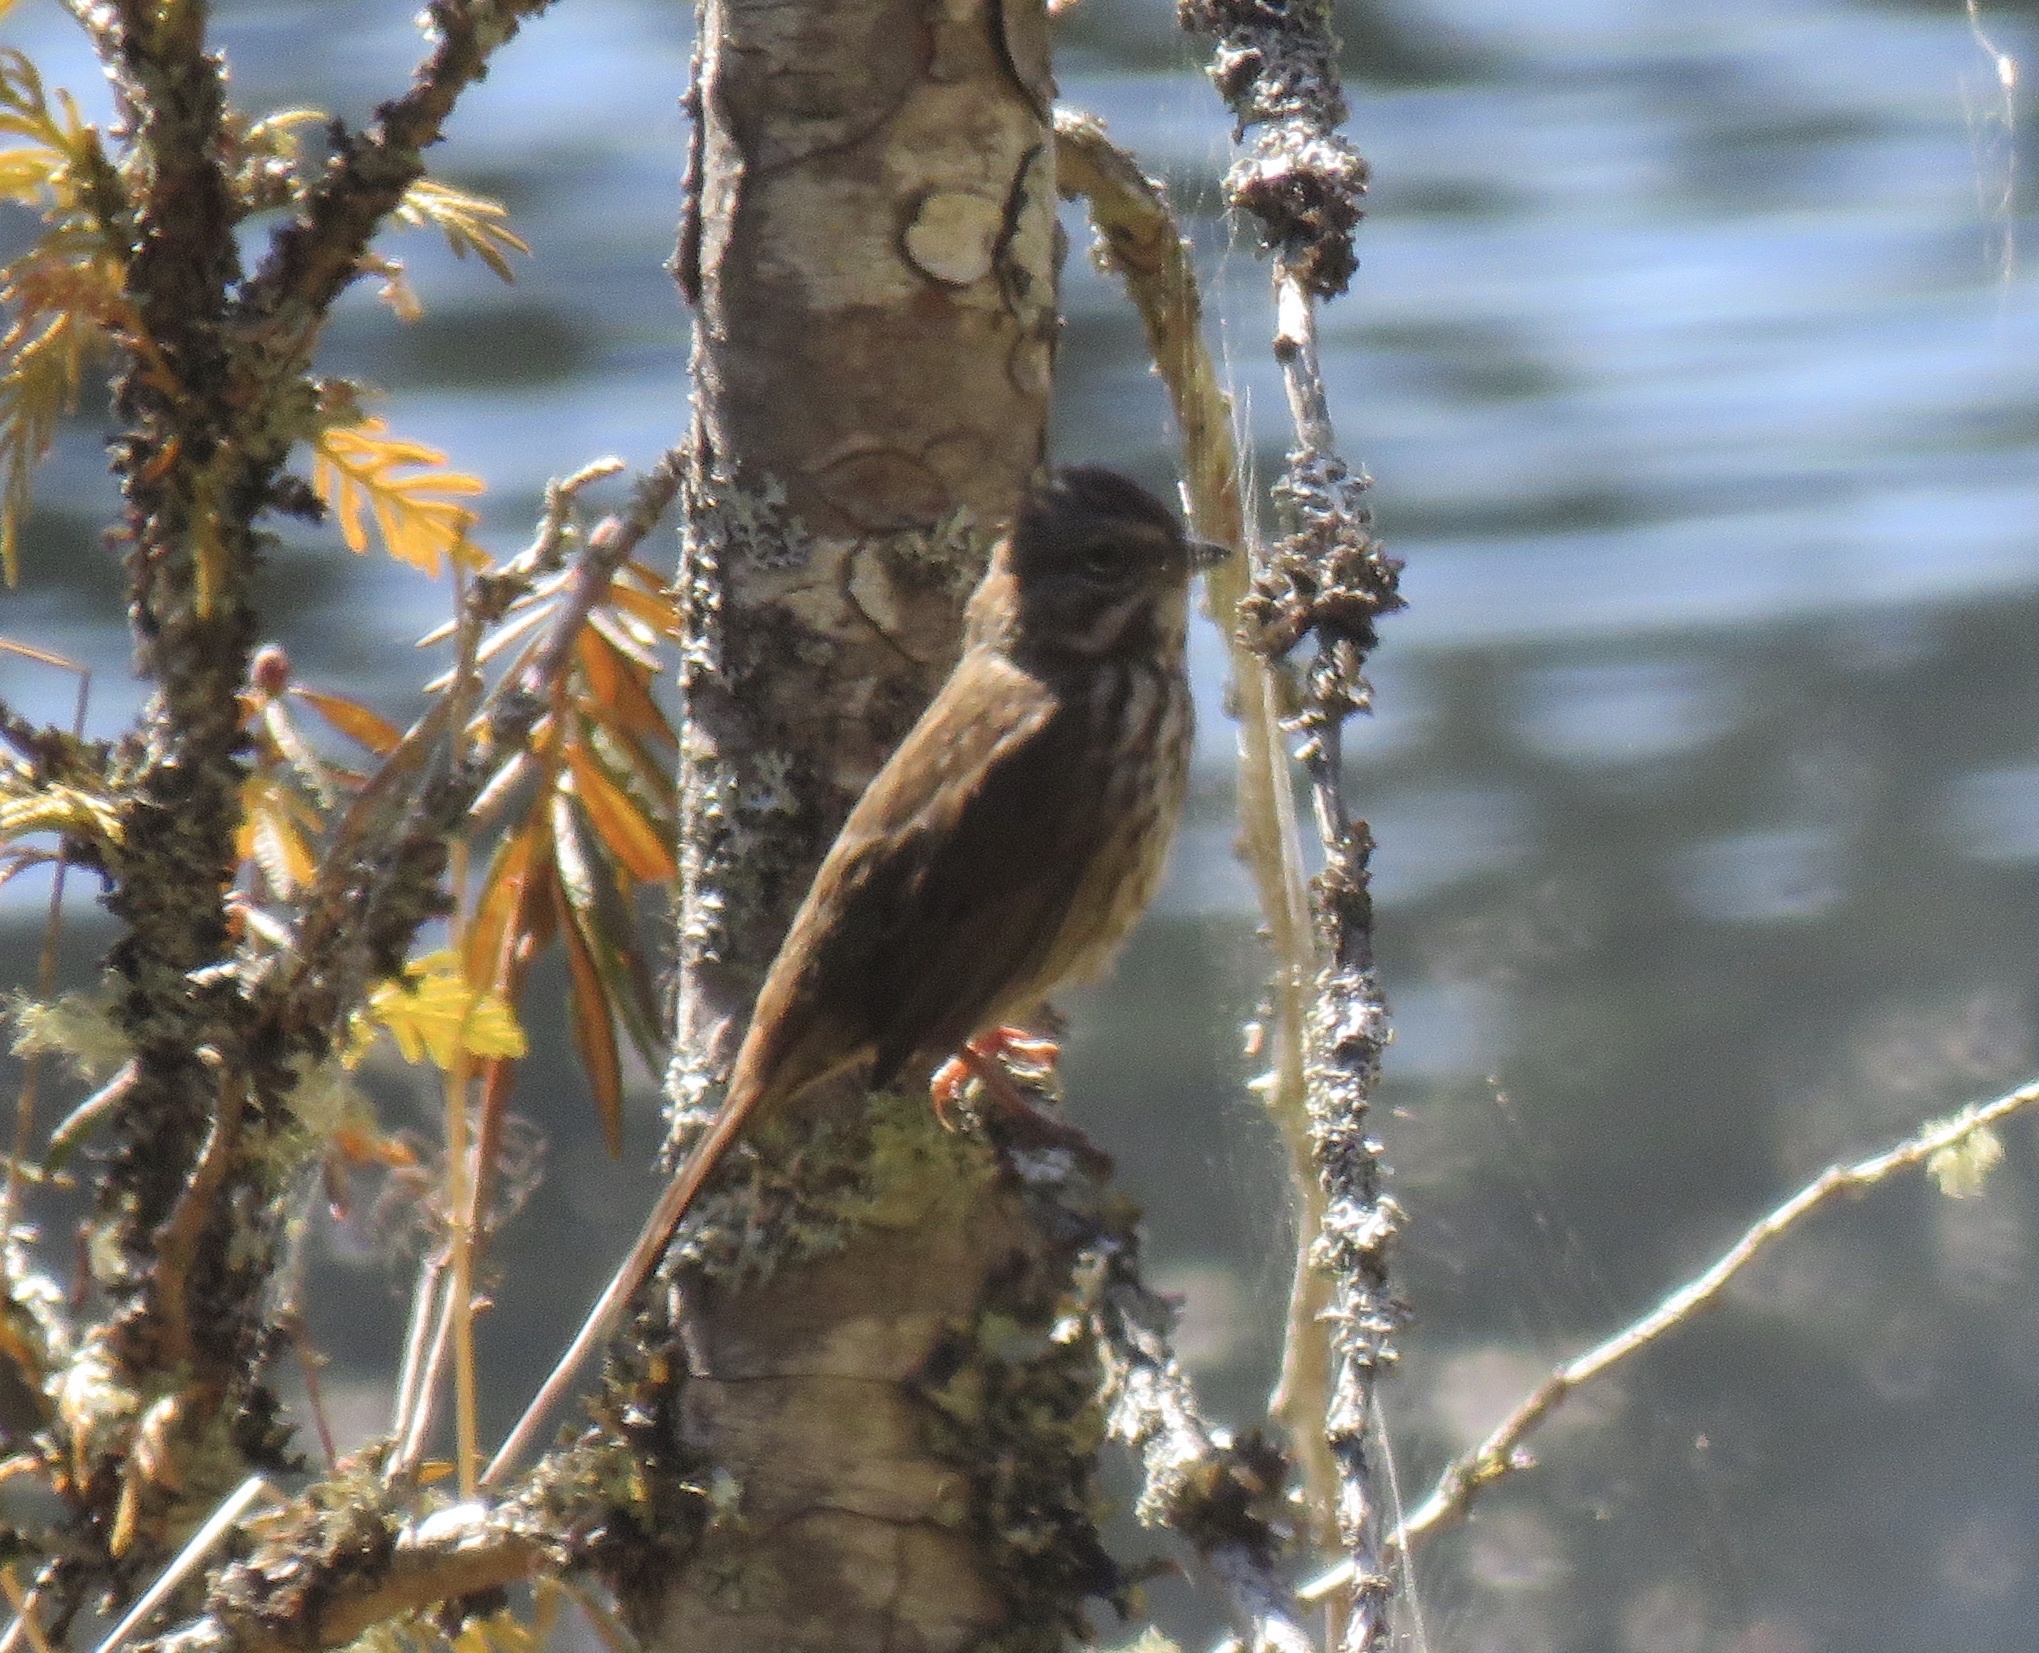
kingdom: Animalia
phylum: Chordata
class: Aves
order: Passeriformes
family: Passerellidae
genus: Melospiza
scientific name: Melospiza melodia
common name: Song sparrow
